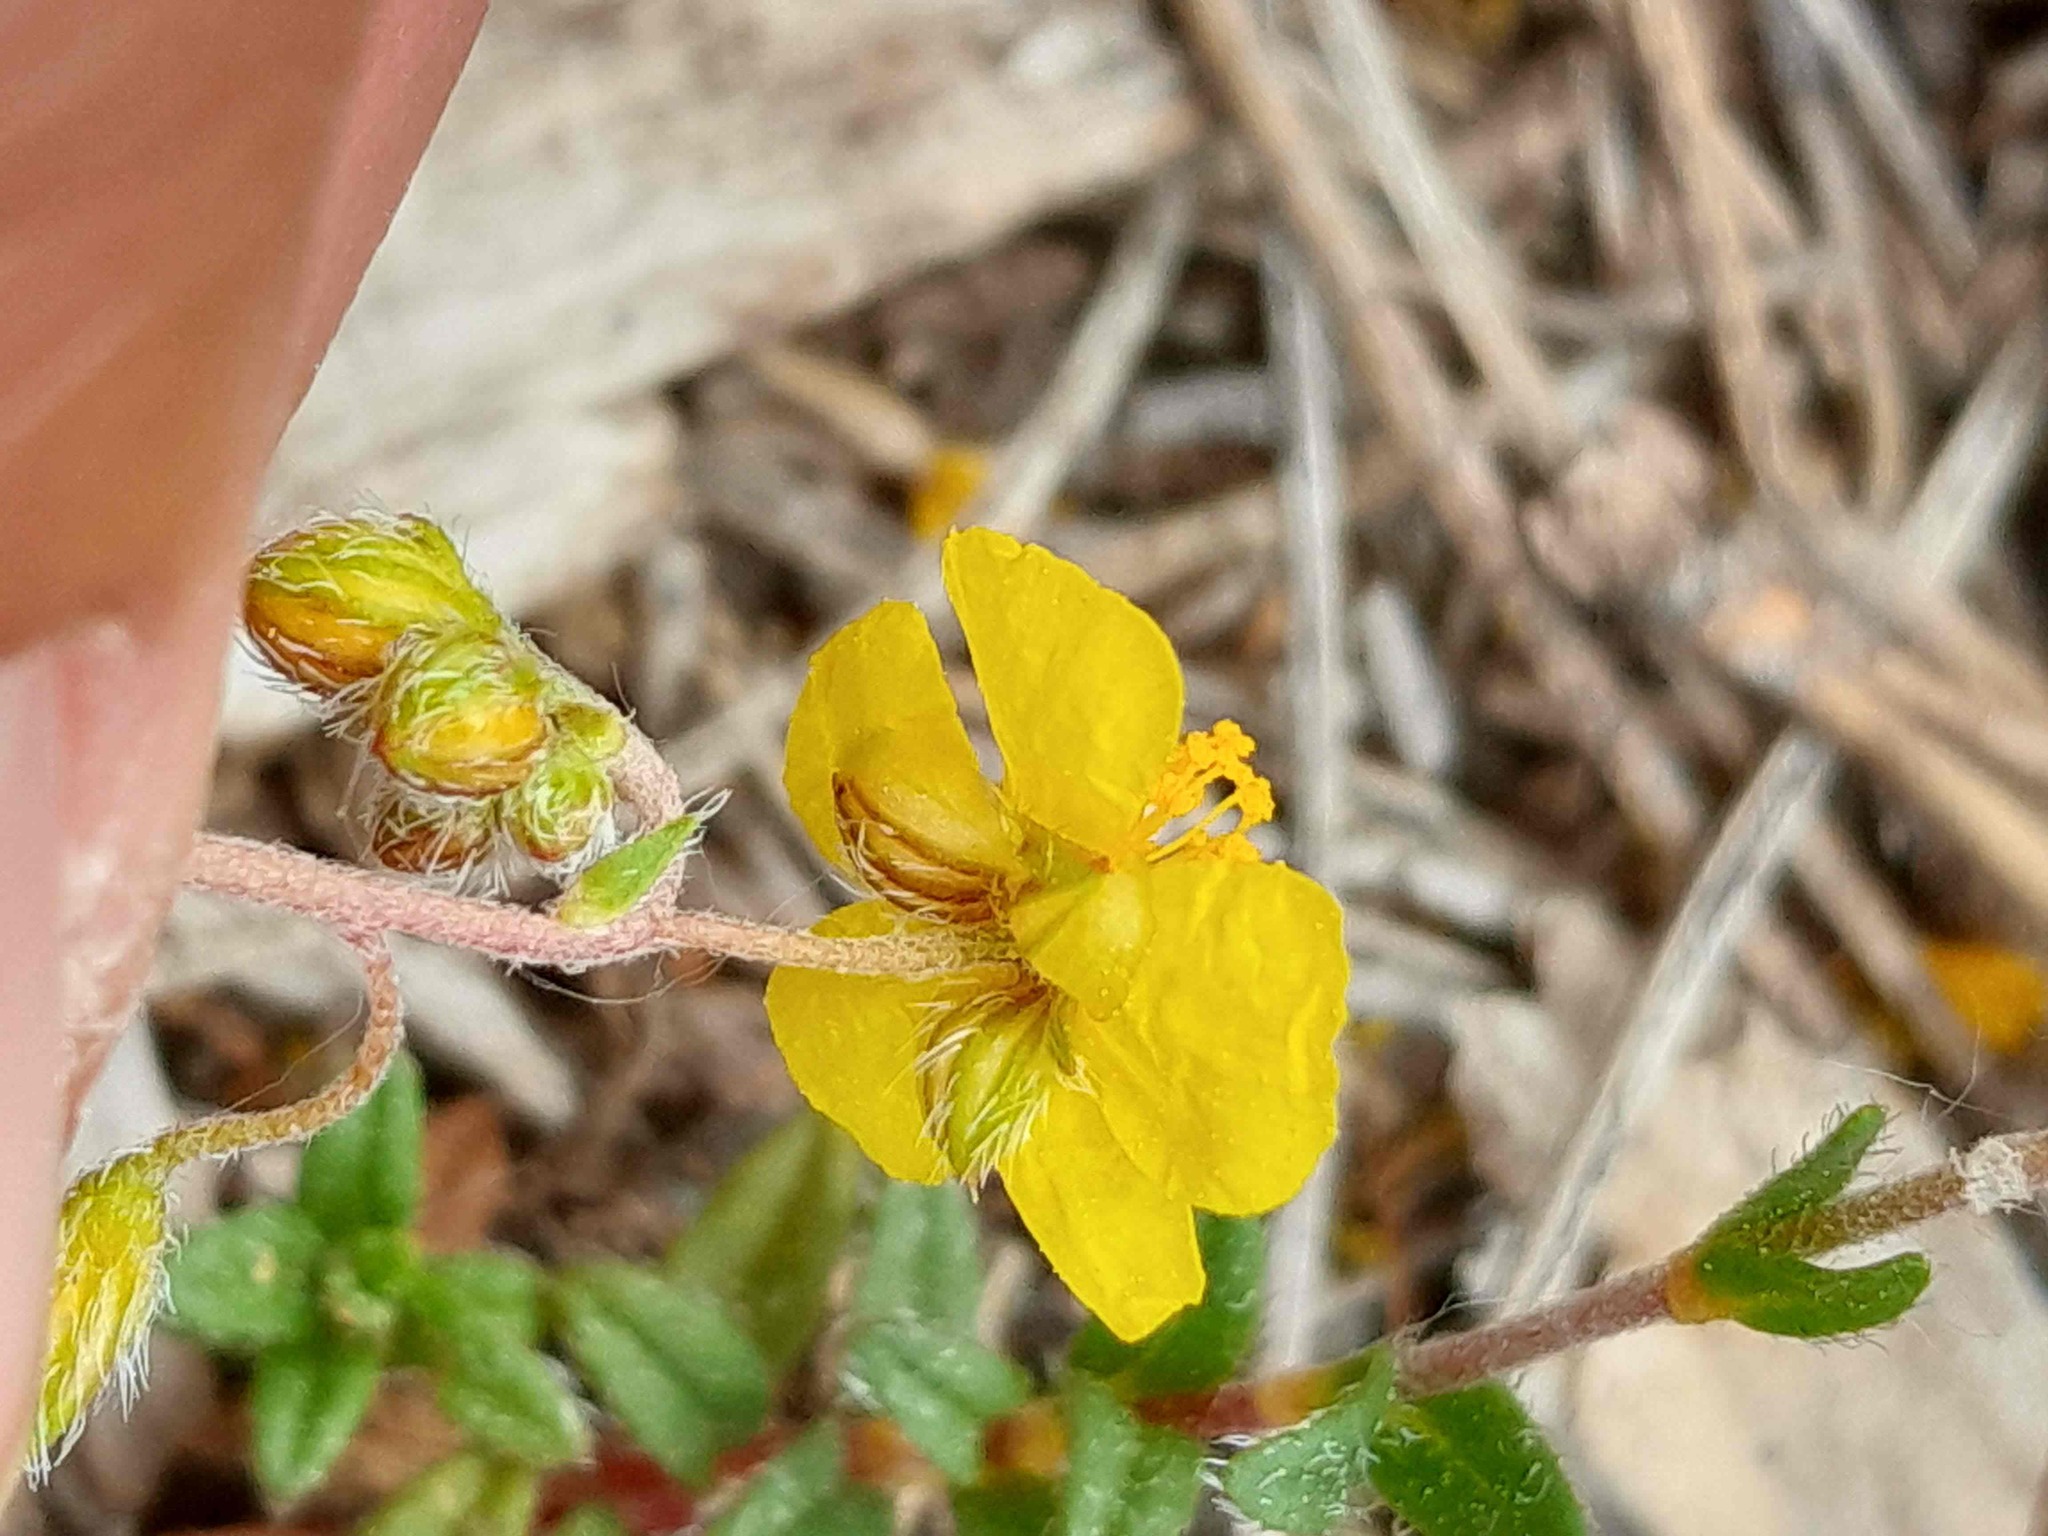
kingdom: Plantae
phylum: Tracheophyta
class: Magnoliopsida
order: Malvales
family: Cistaceae
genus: Helianthemum
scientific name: Helianthemum oelandicum
